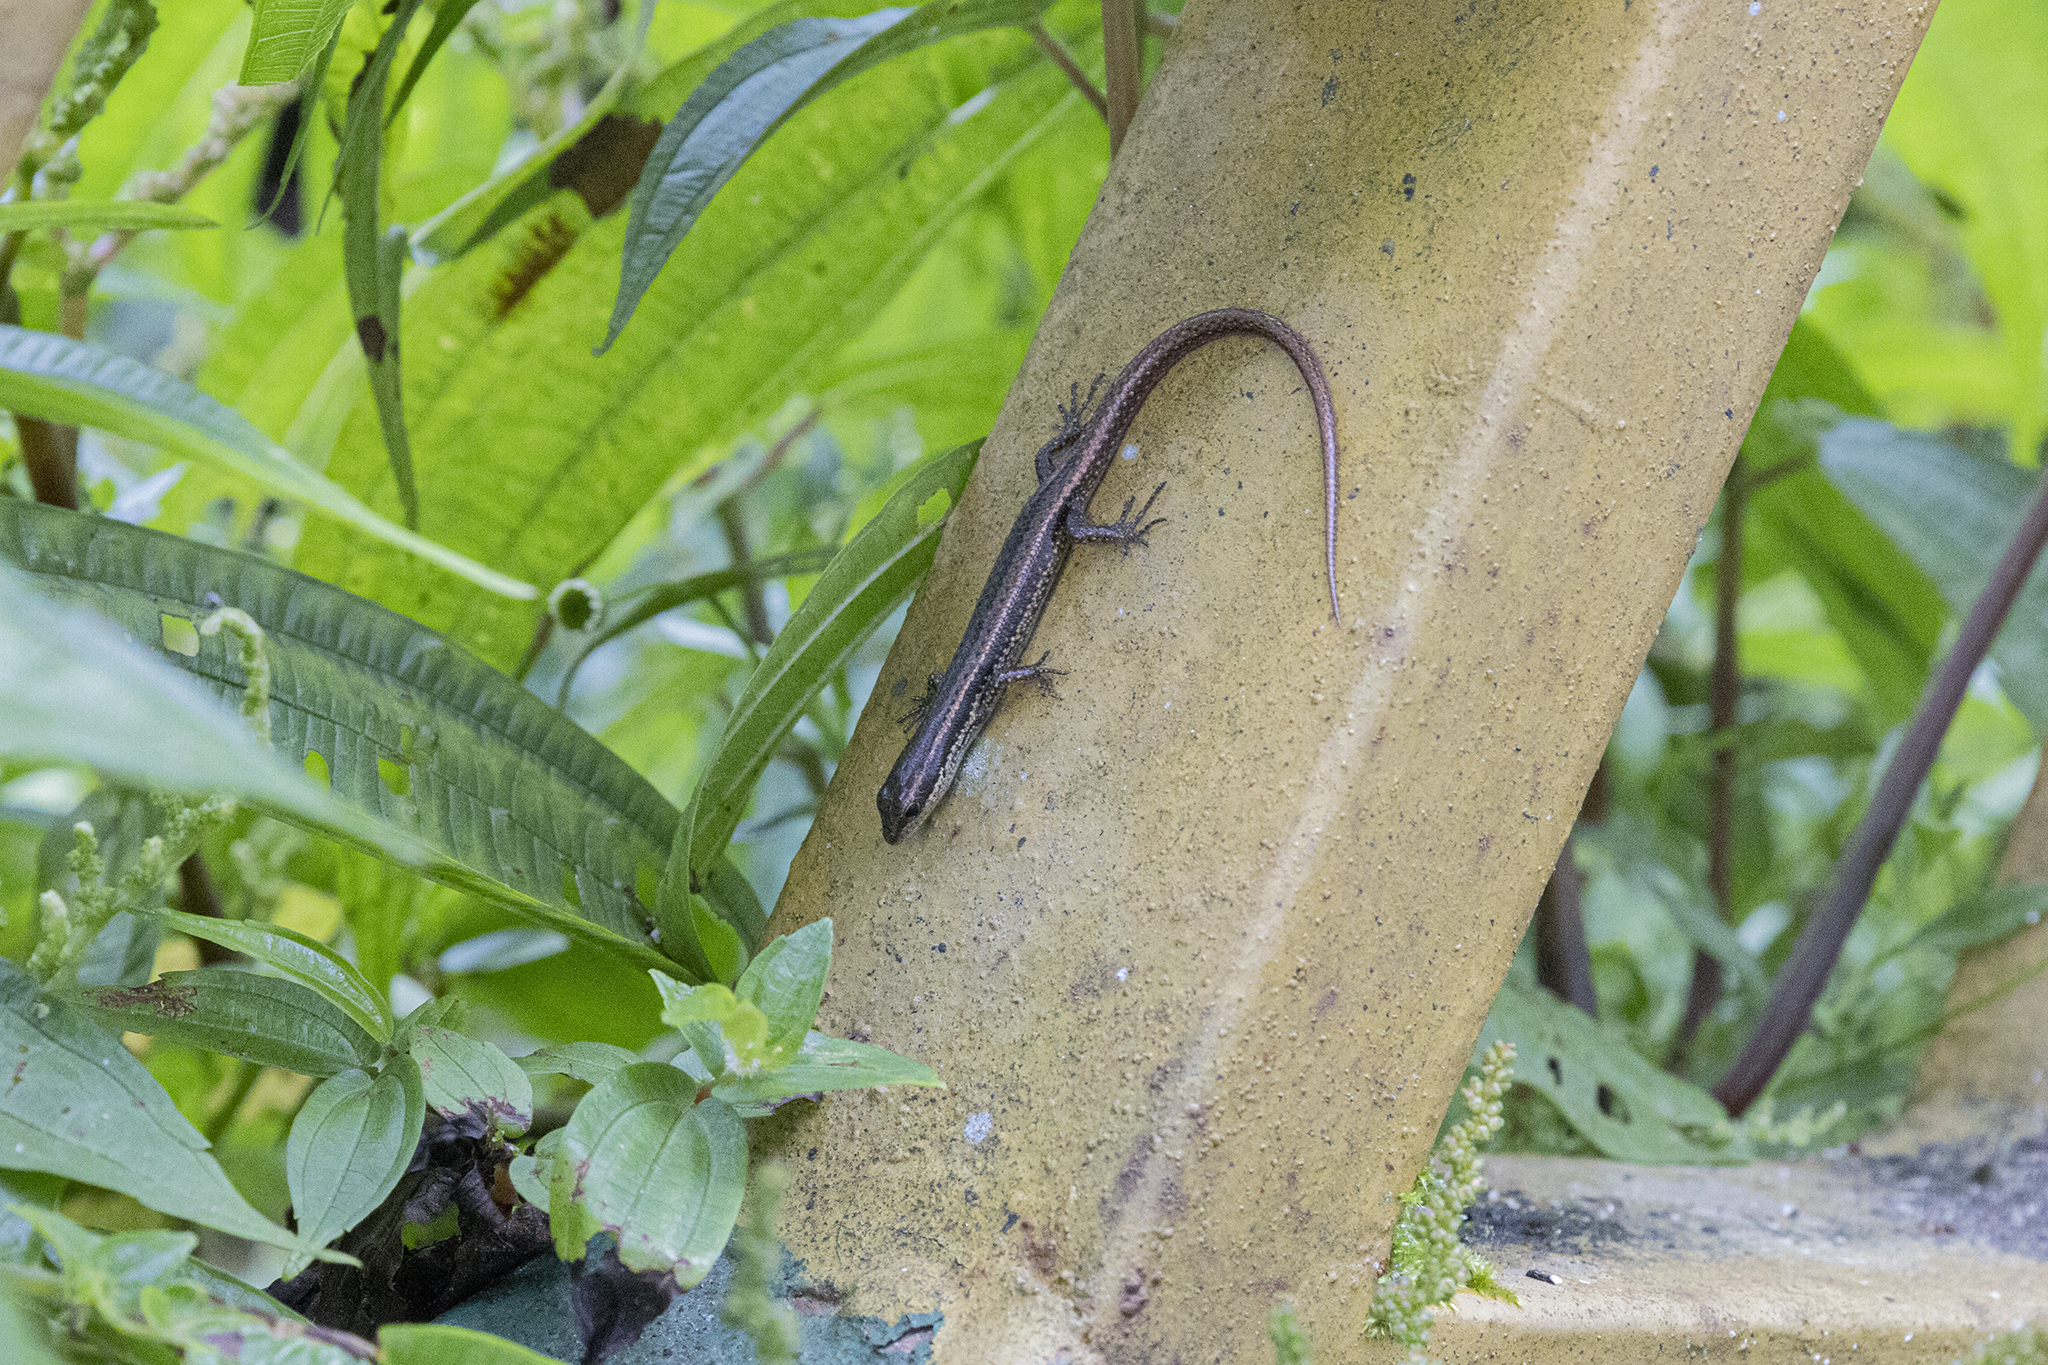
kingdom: Animalia
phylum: Chordata
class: Squamata
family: Scincidae
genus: Asymblepharus
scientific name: Asymblepharus sikimmensis
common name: Bronzy-brown skink
